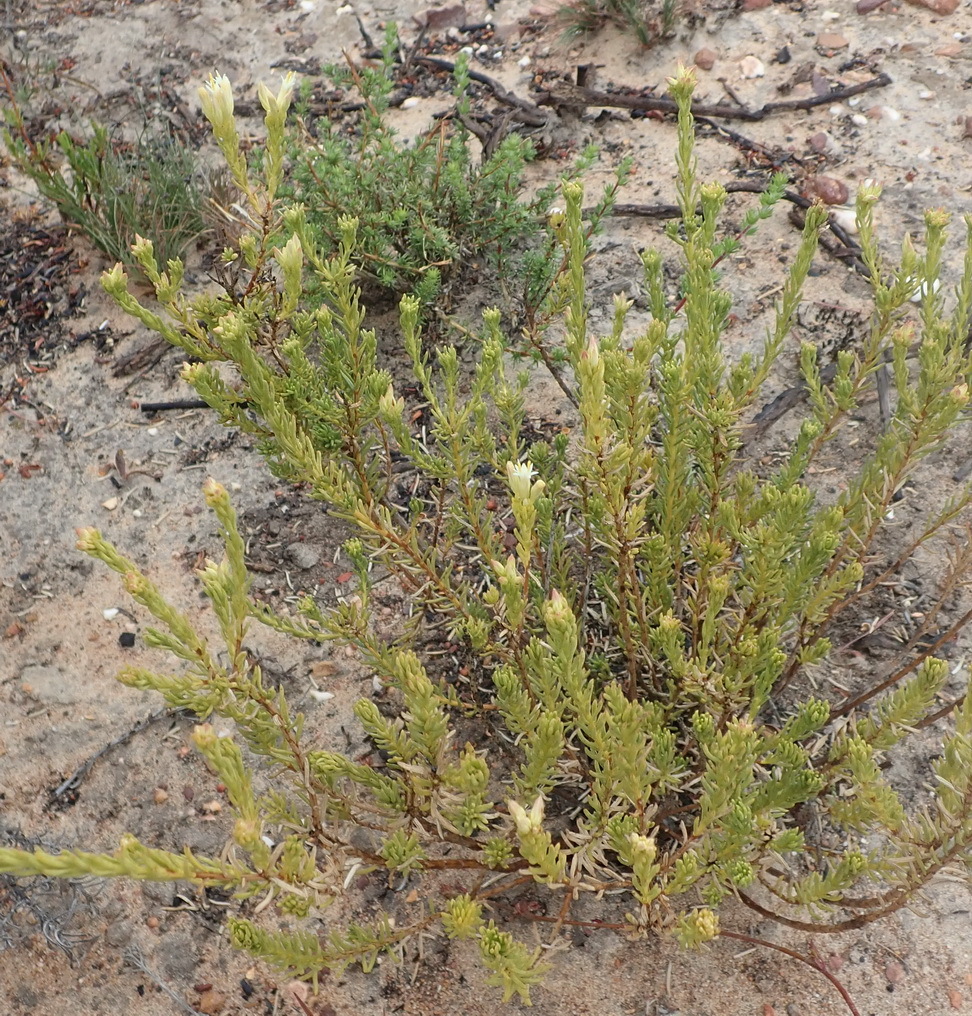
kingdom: Plantae
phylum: Tracheophyta
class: Magnoliopsida
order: Asterales
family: Asteraceae
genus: Pteronia
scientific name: Pteronia teretifolia
